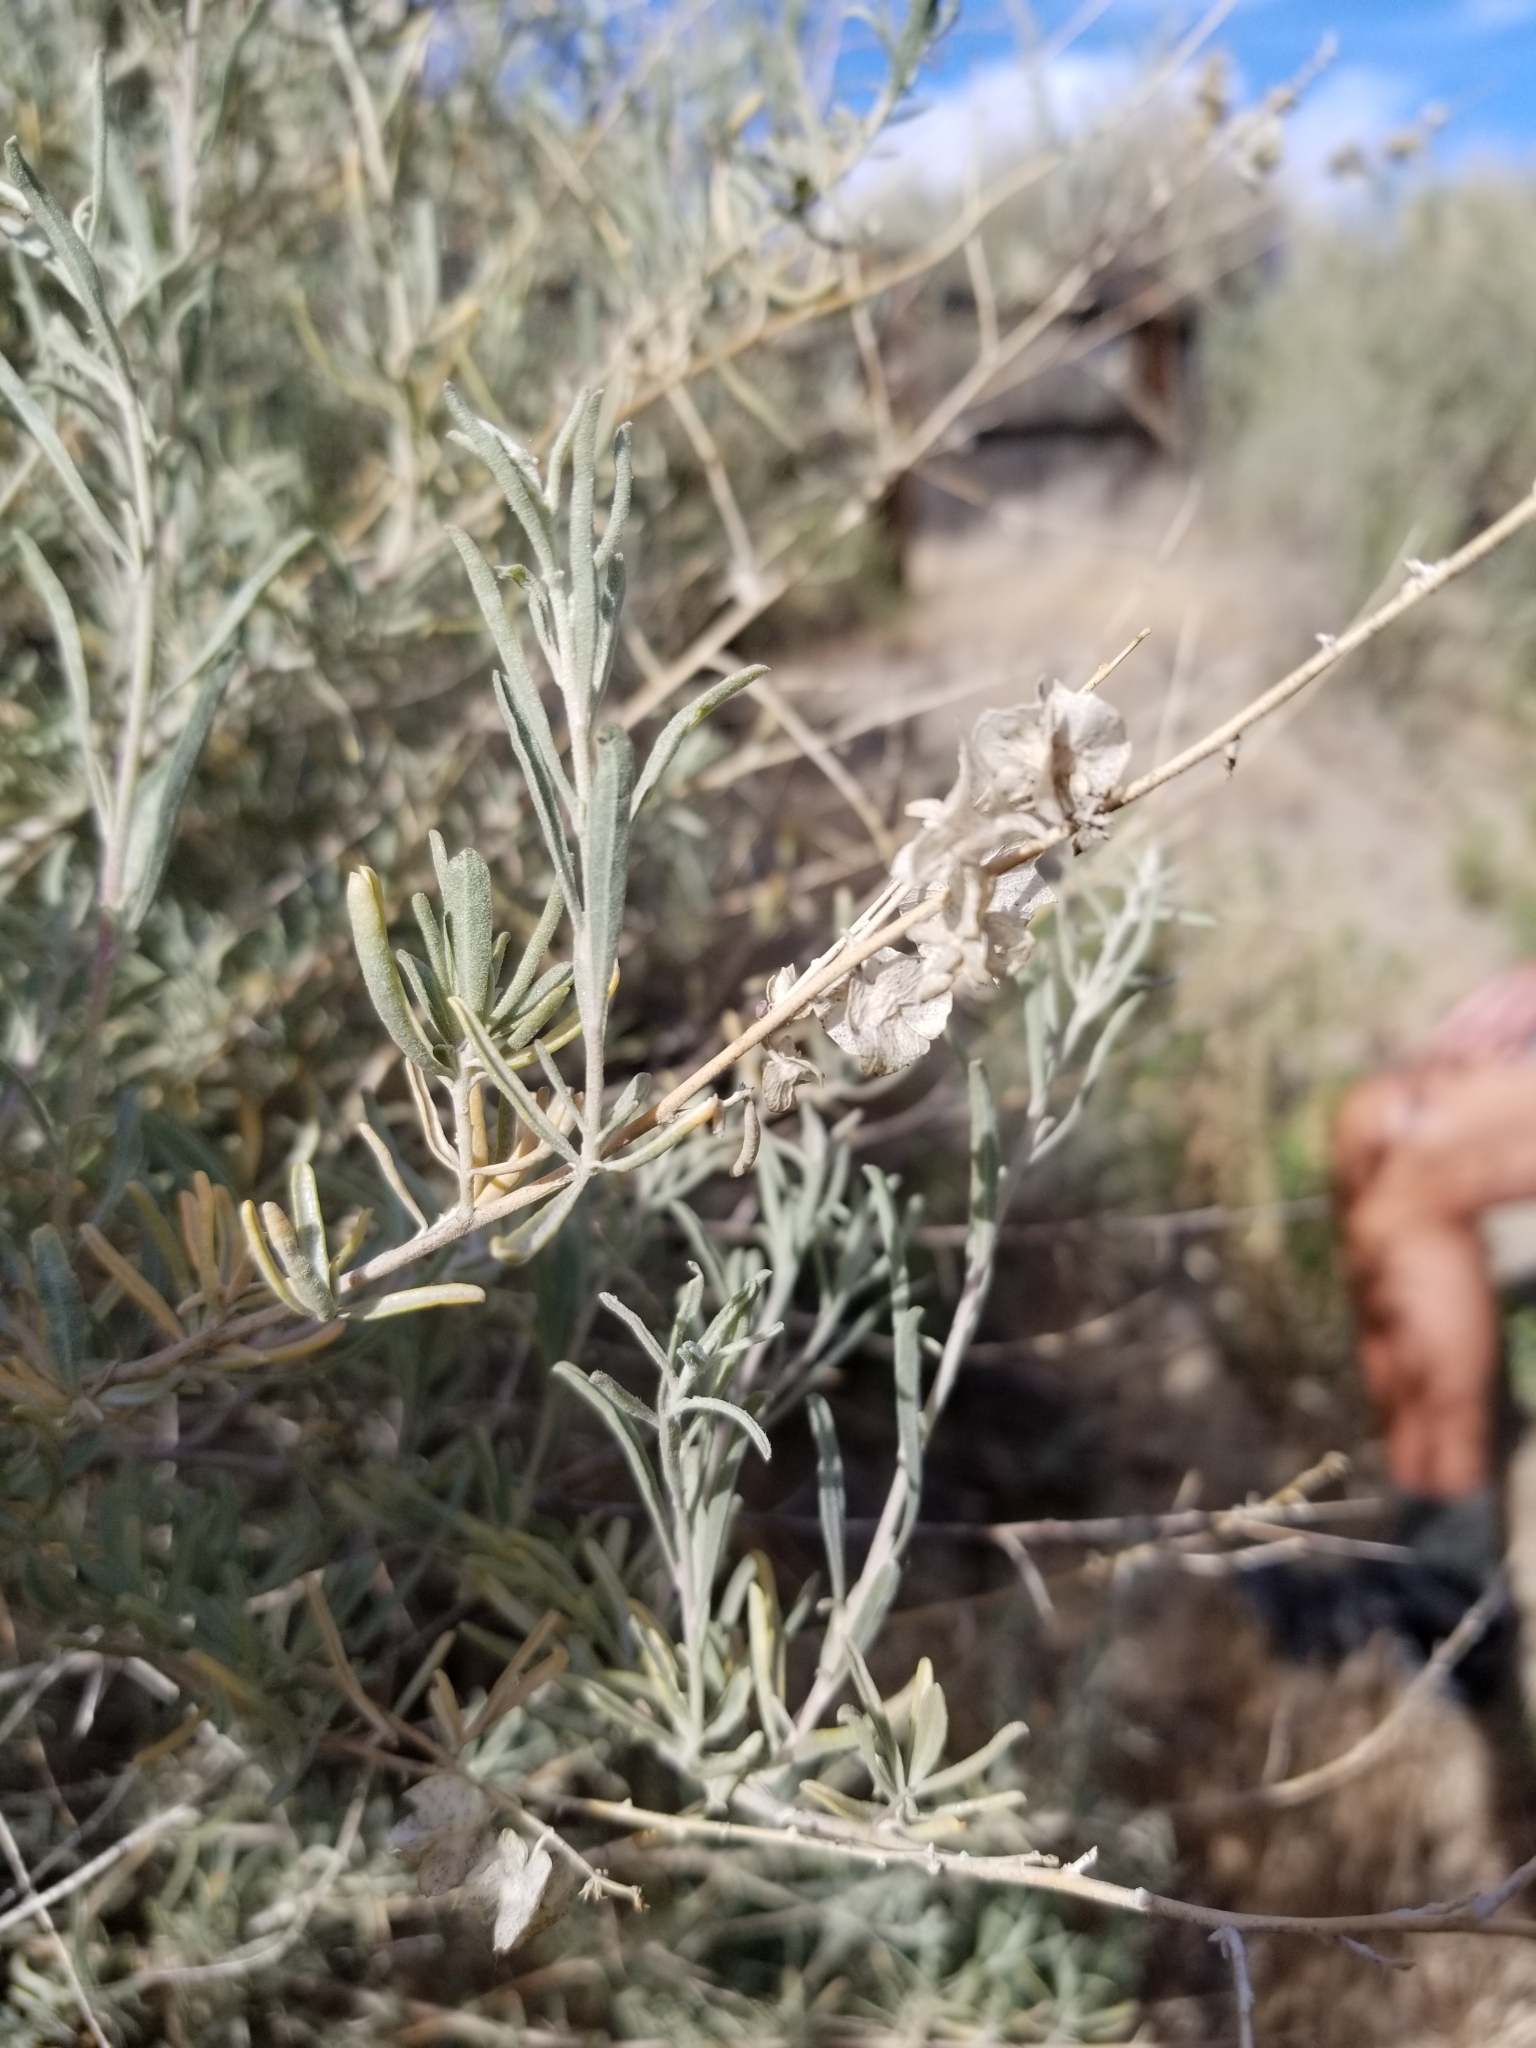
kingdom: Plantae
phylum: Tracheophyta
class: Magnoliopsida
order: Caryophyllales
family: Amaranthaceae
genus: Atriplex
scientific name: Atriplex canescens
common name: Four-wing saltbush
